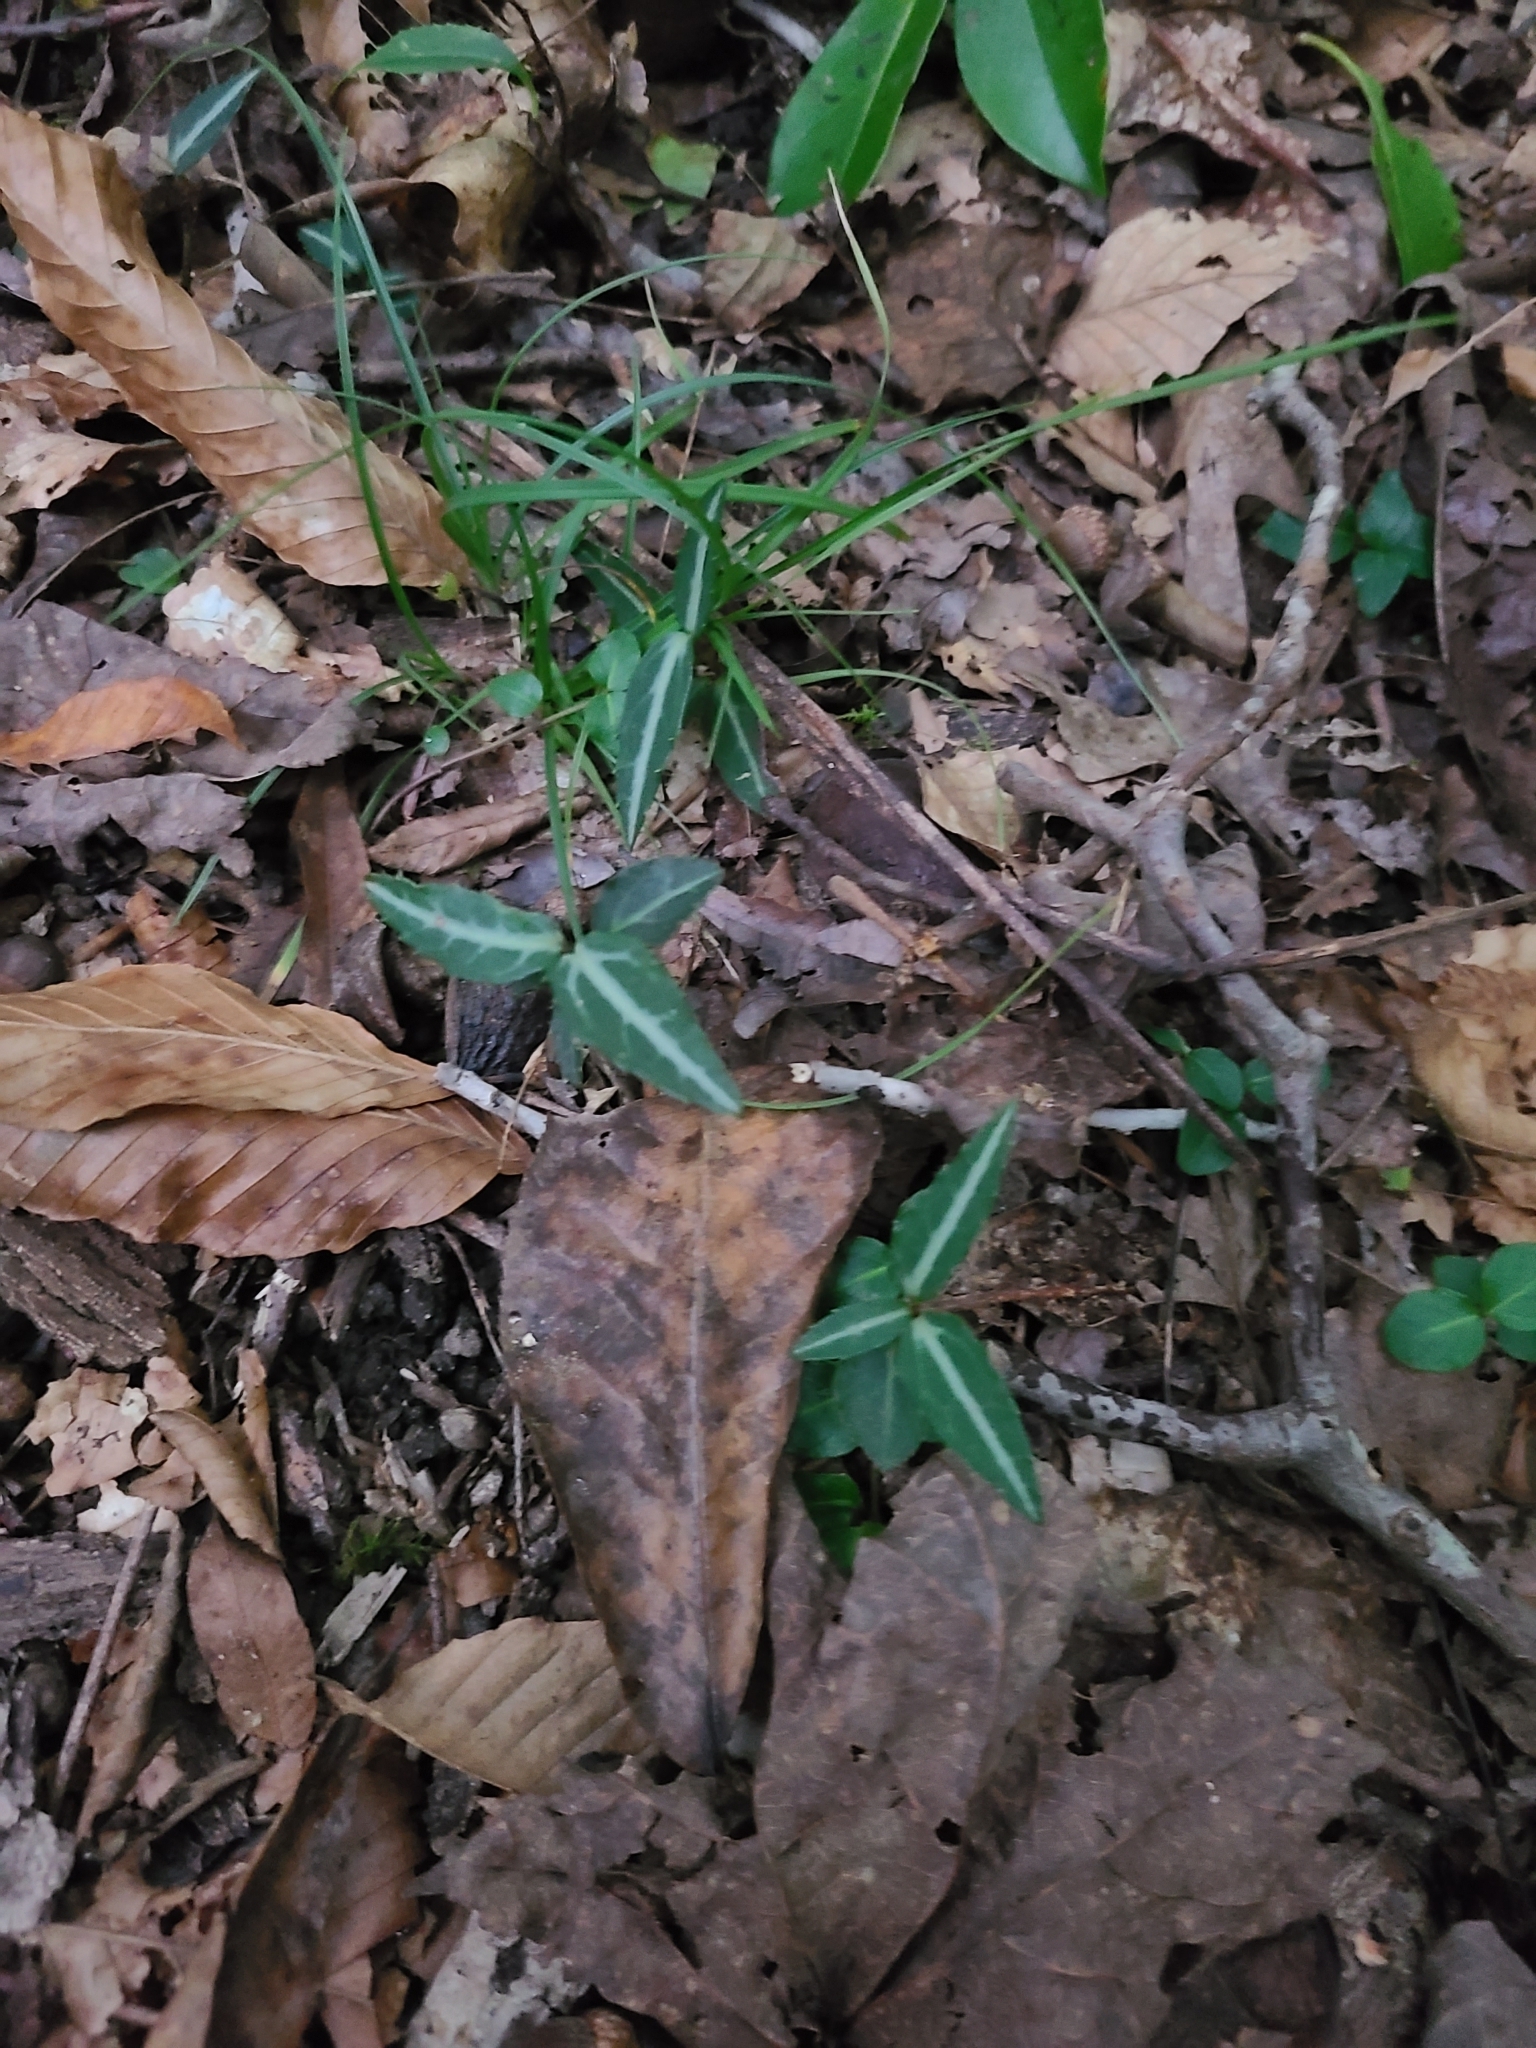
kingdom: Plantae
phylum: Tracheophyta
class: Magnoliopsida
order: Ericales
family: Ericaceae
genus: Chimaphila
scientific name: Chimaphila maculata
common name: Spotted pipsissewa
